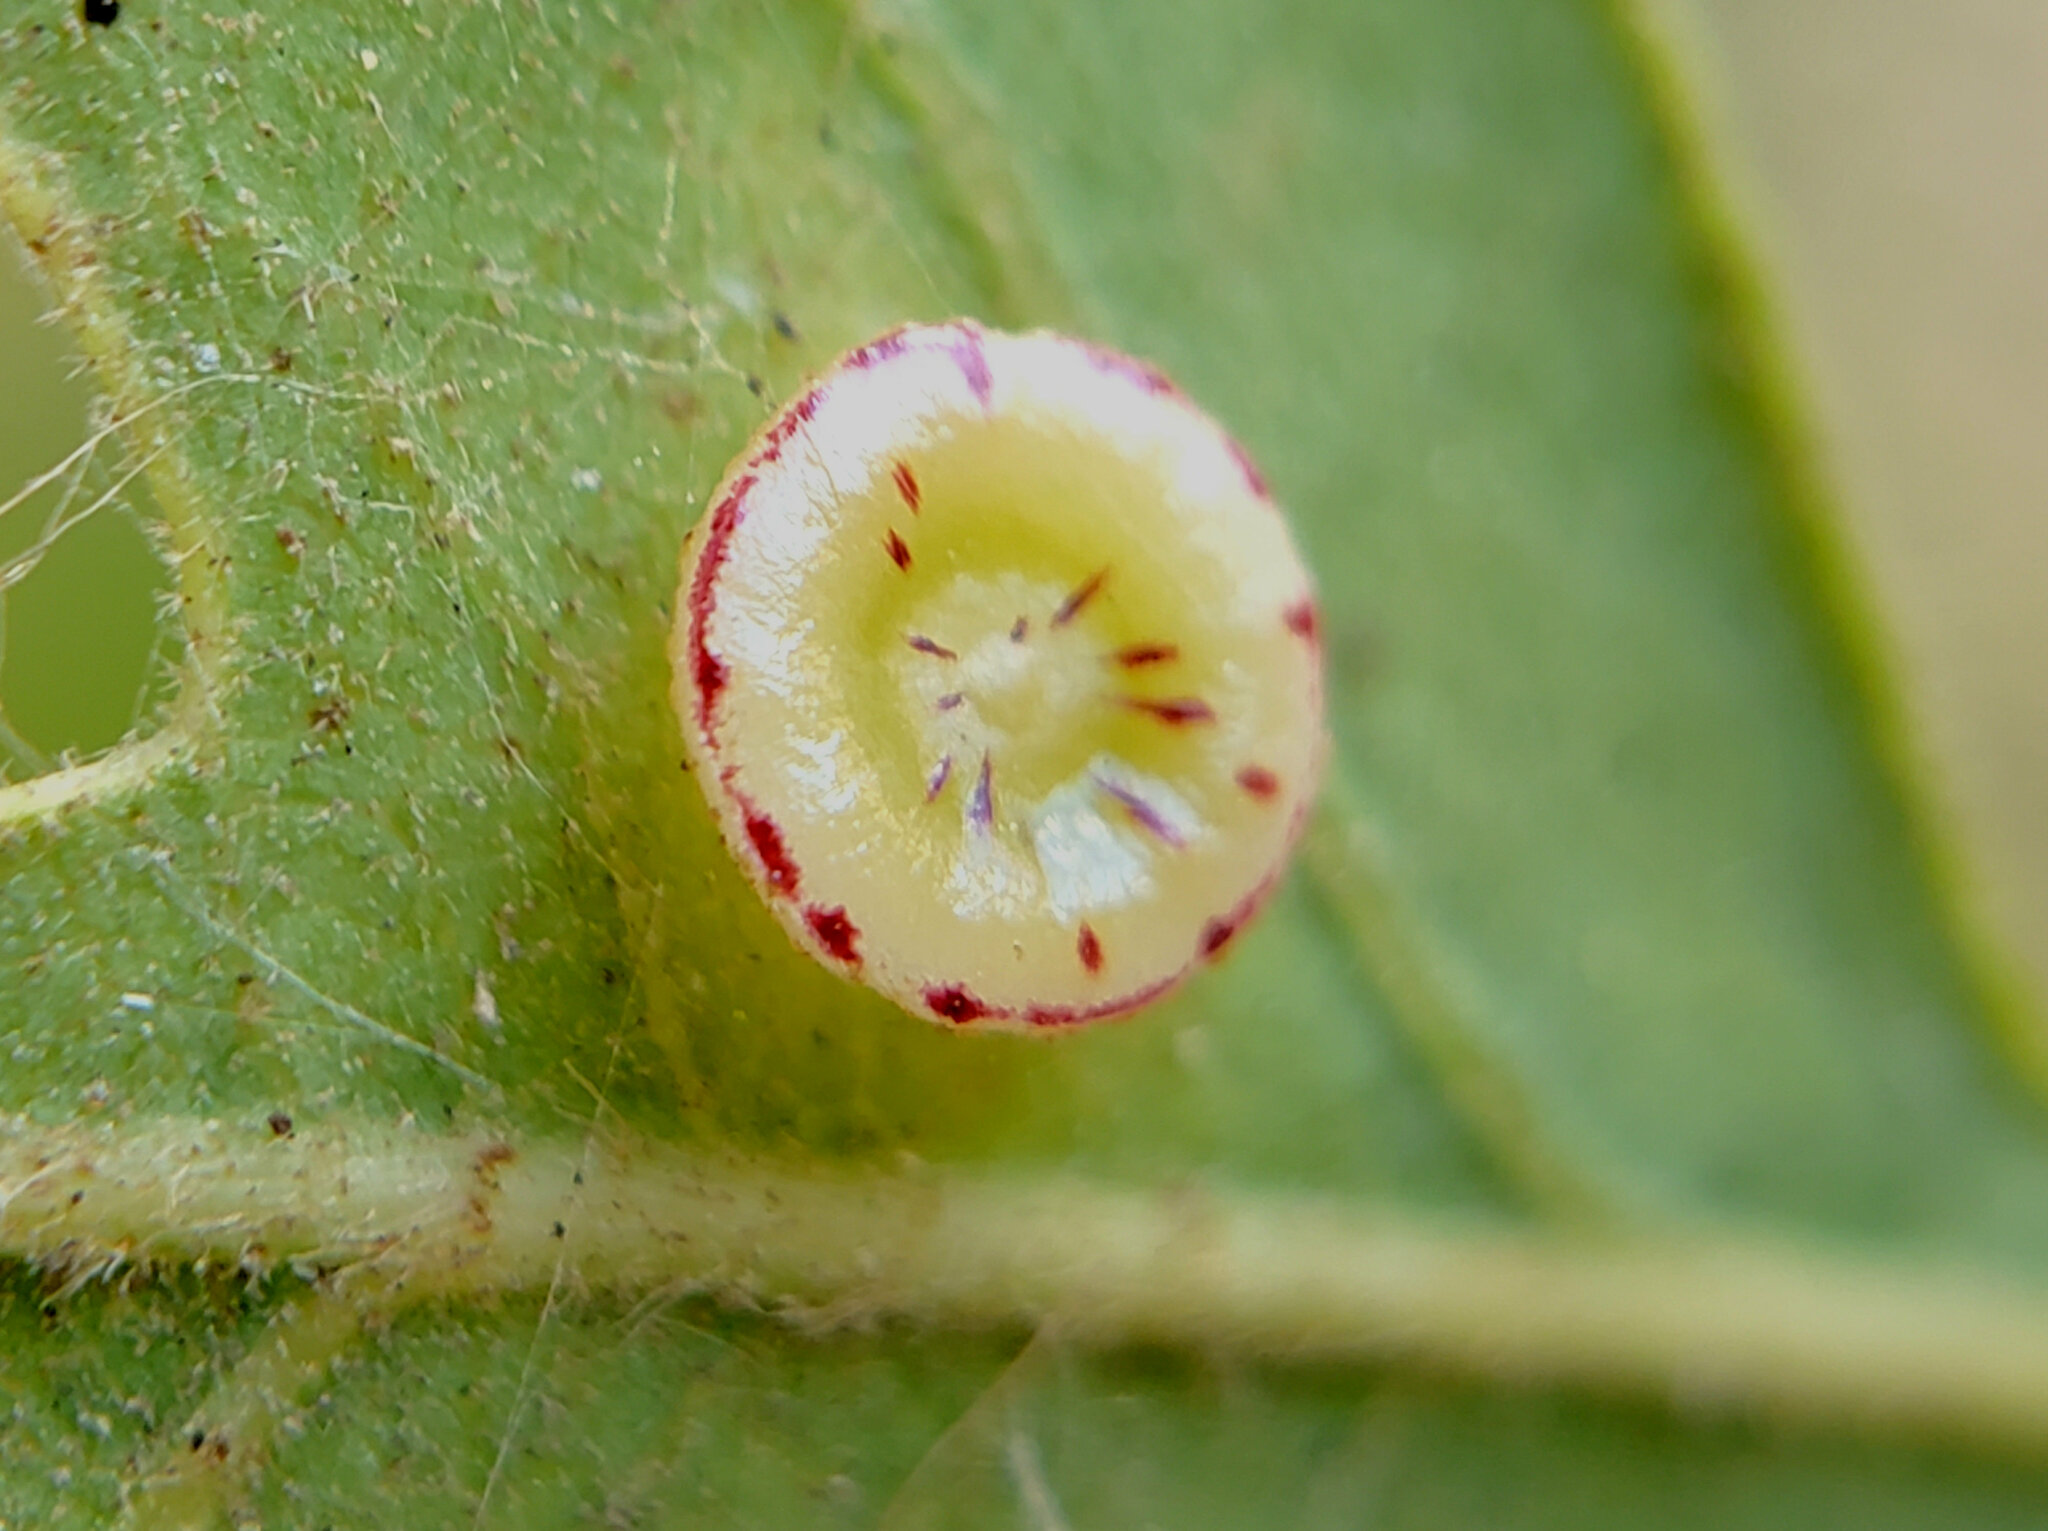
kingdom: Animalia
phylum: Arthropoda
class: Insecta
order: Hymenoptera
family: Cynipidae
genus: Andricus
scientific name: Andricus
